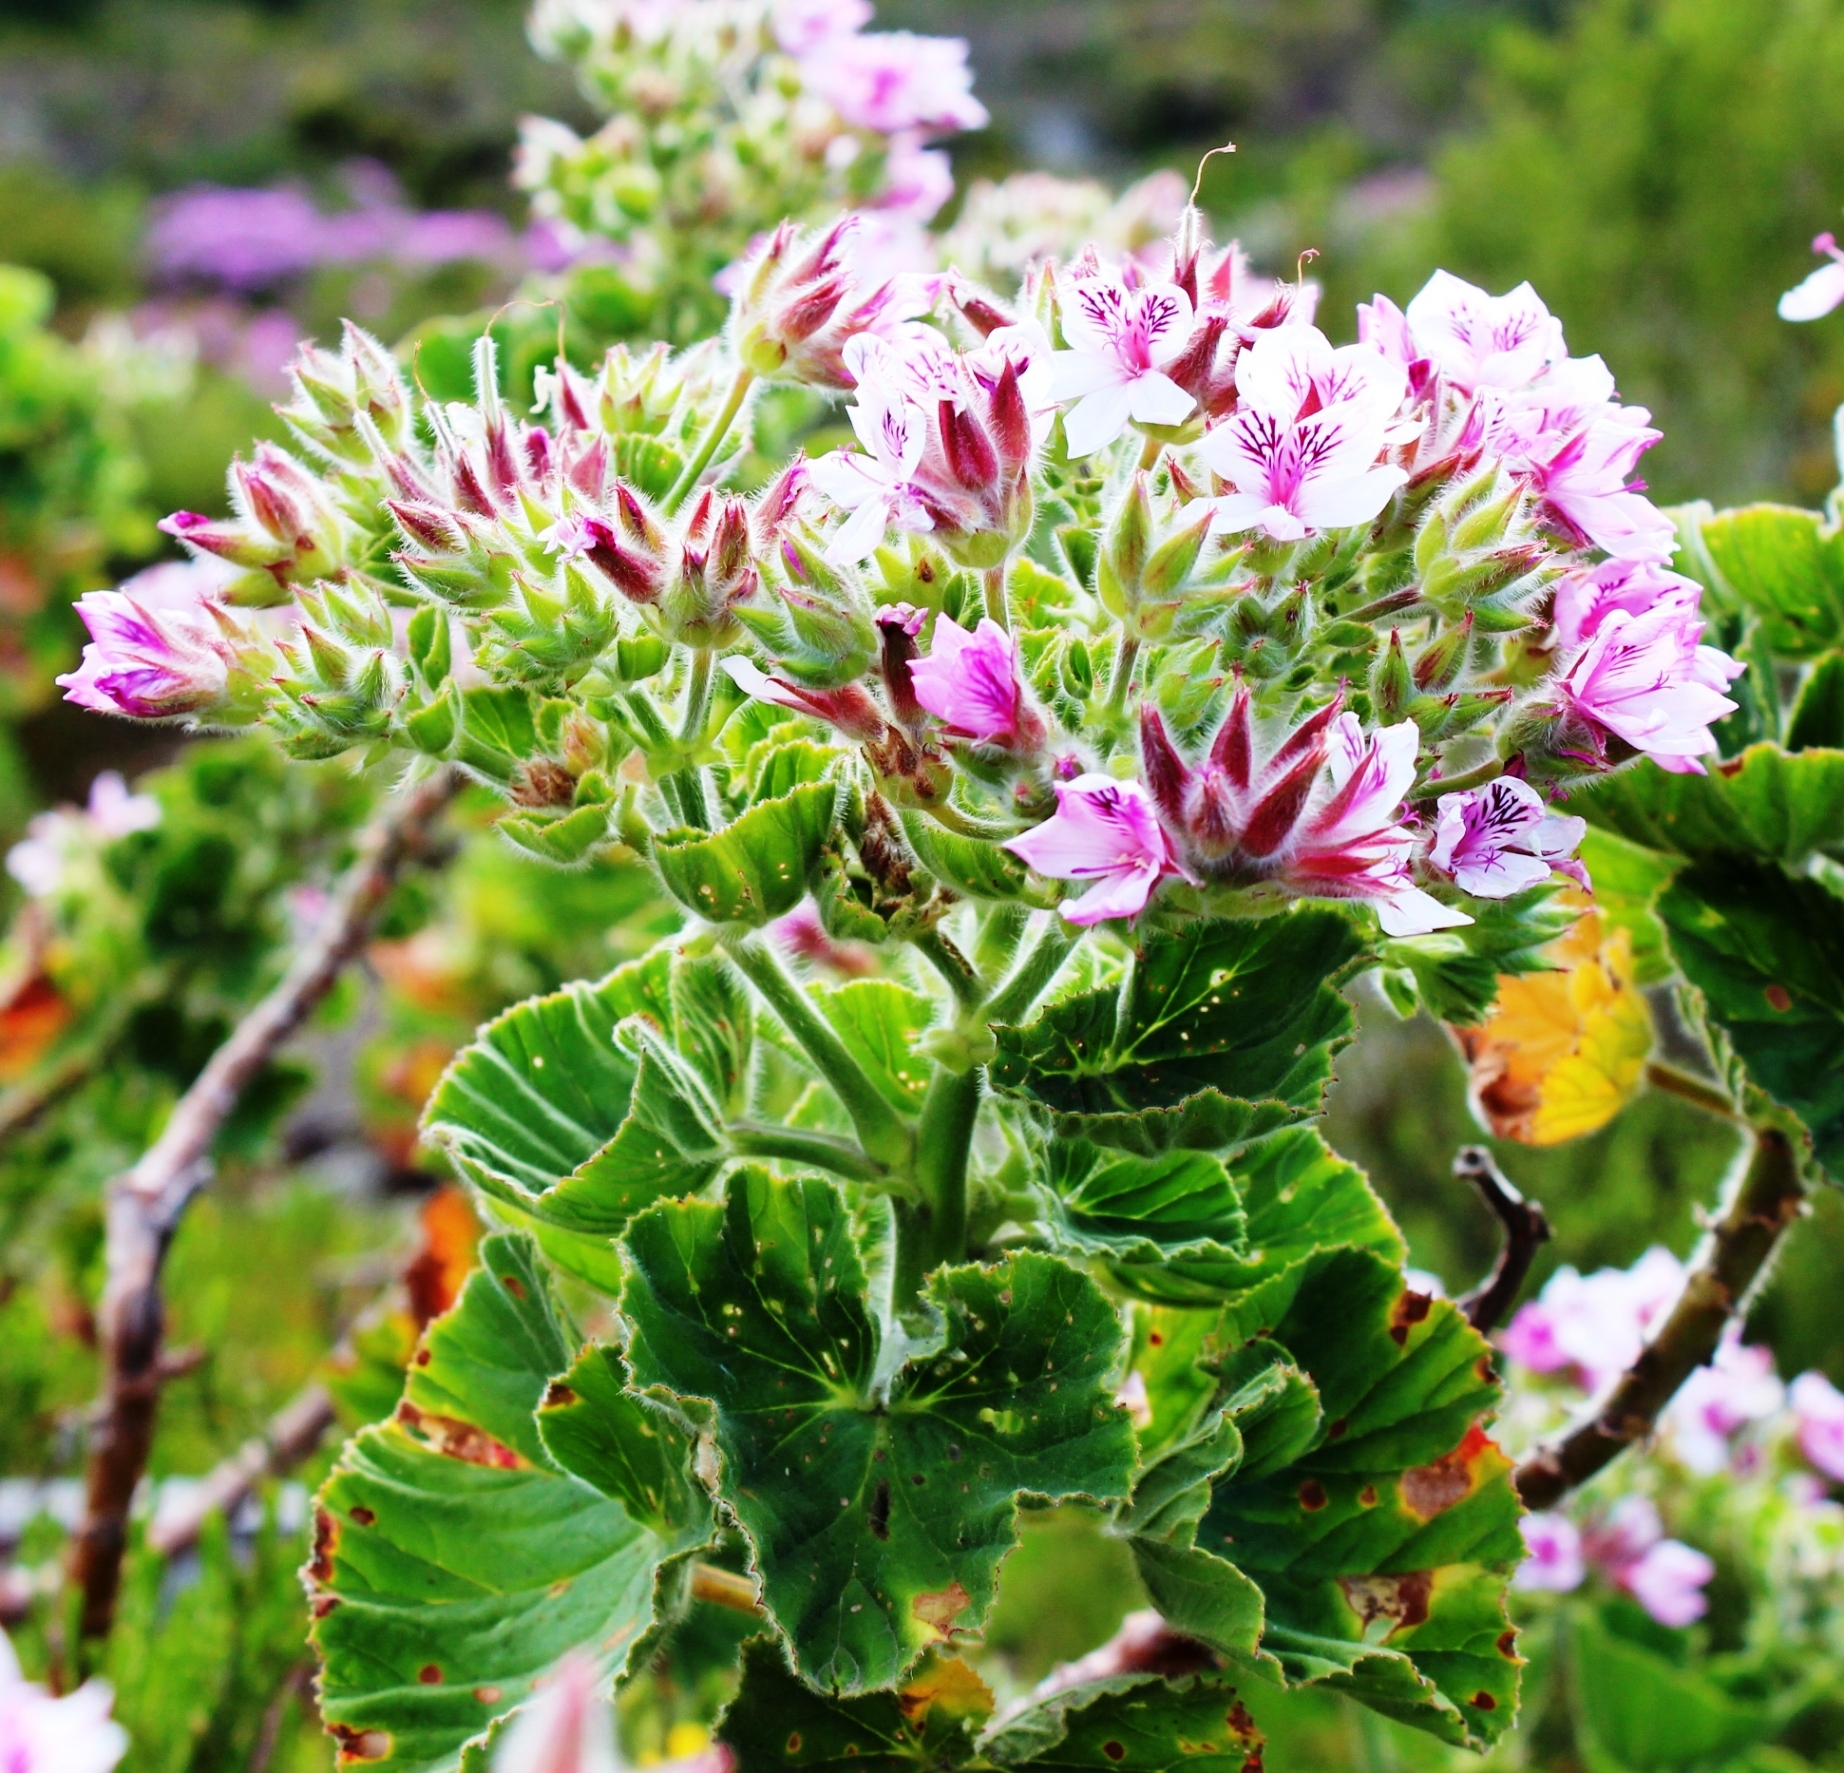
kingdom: Plantae
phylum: Tracheophyta
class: Magnoliopsida
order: Geraniales
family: Geraniaceae
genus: Pelargonium
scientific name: Pelargonium cucullatum
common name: Tree pelargonium
